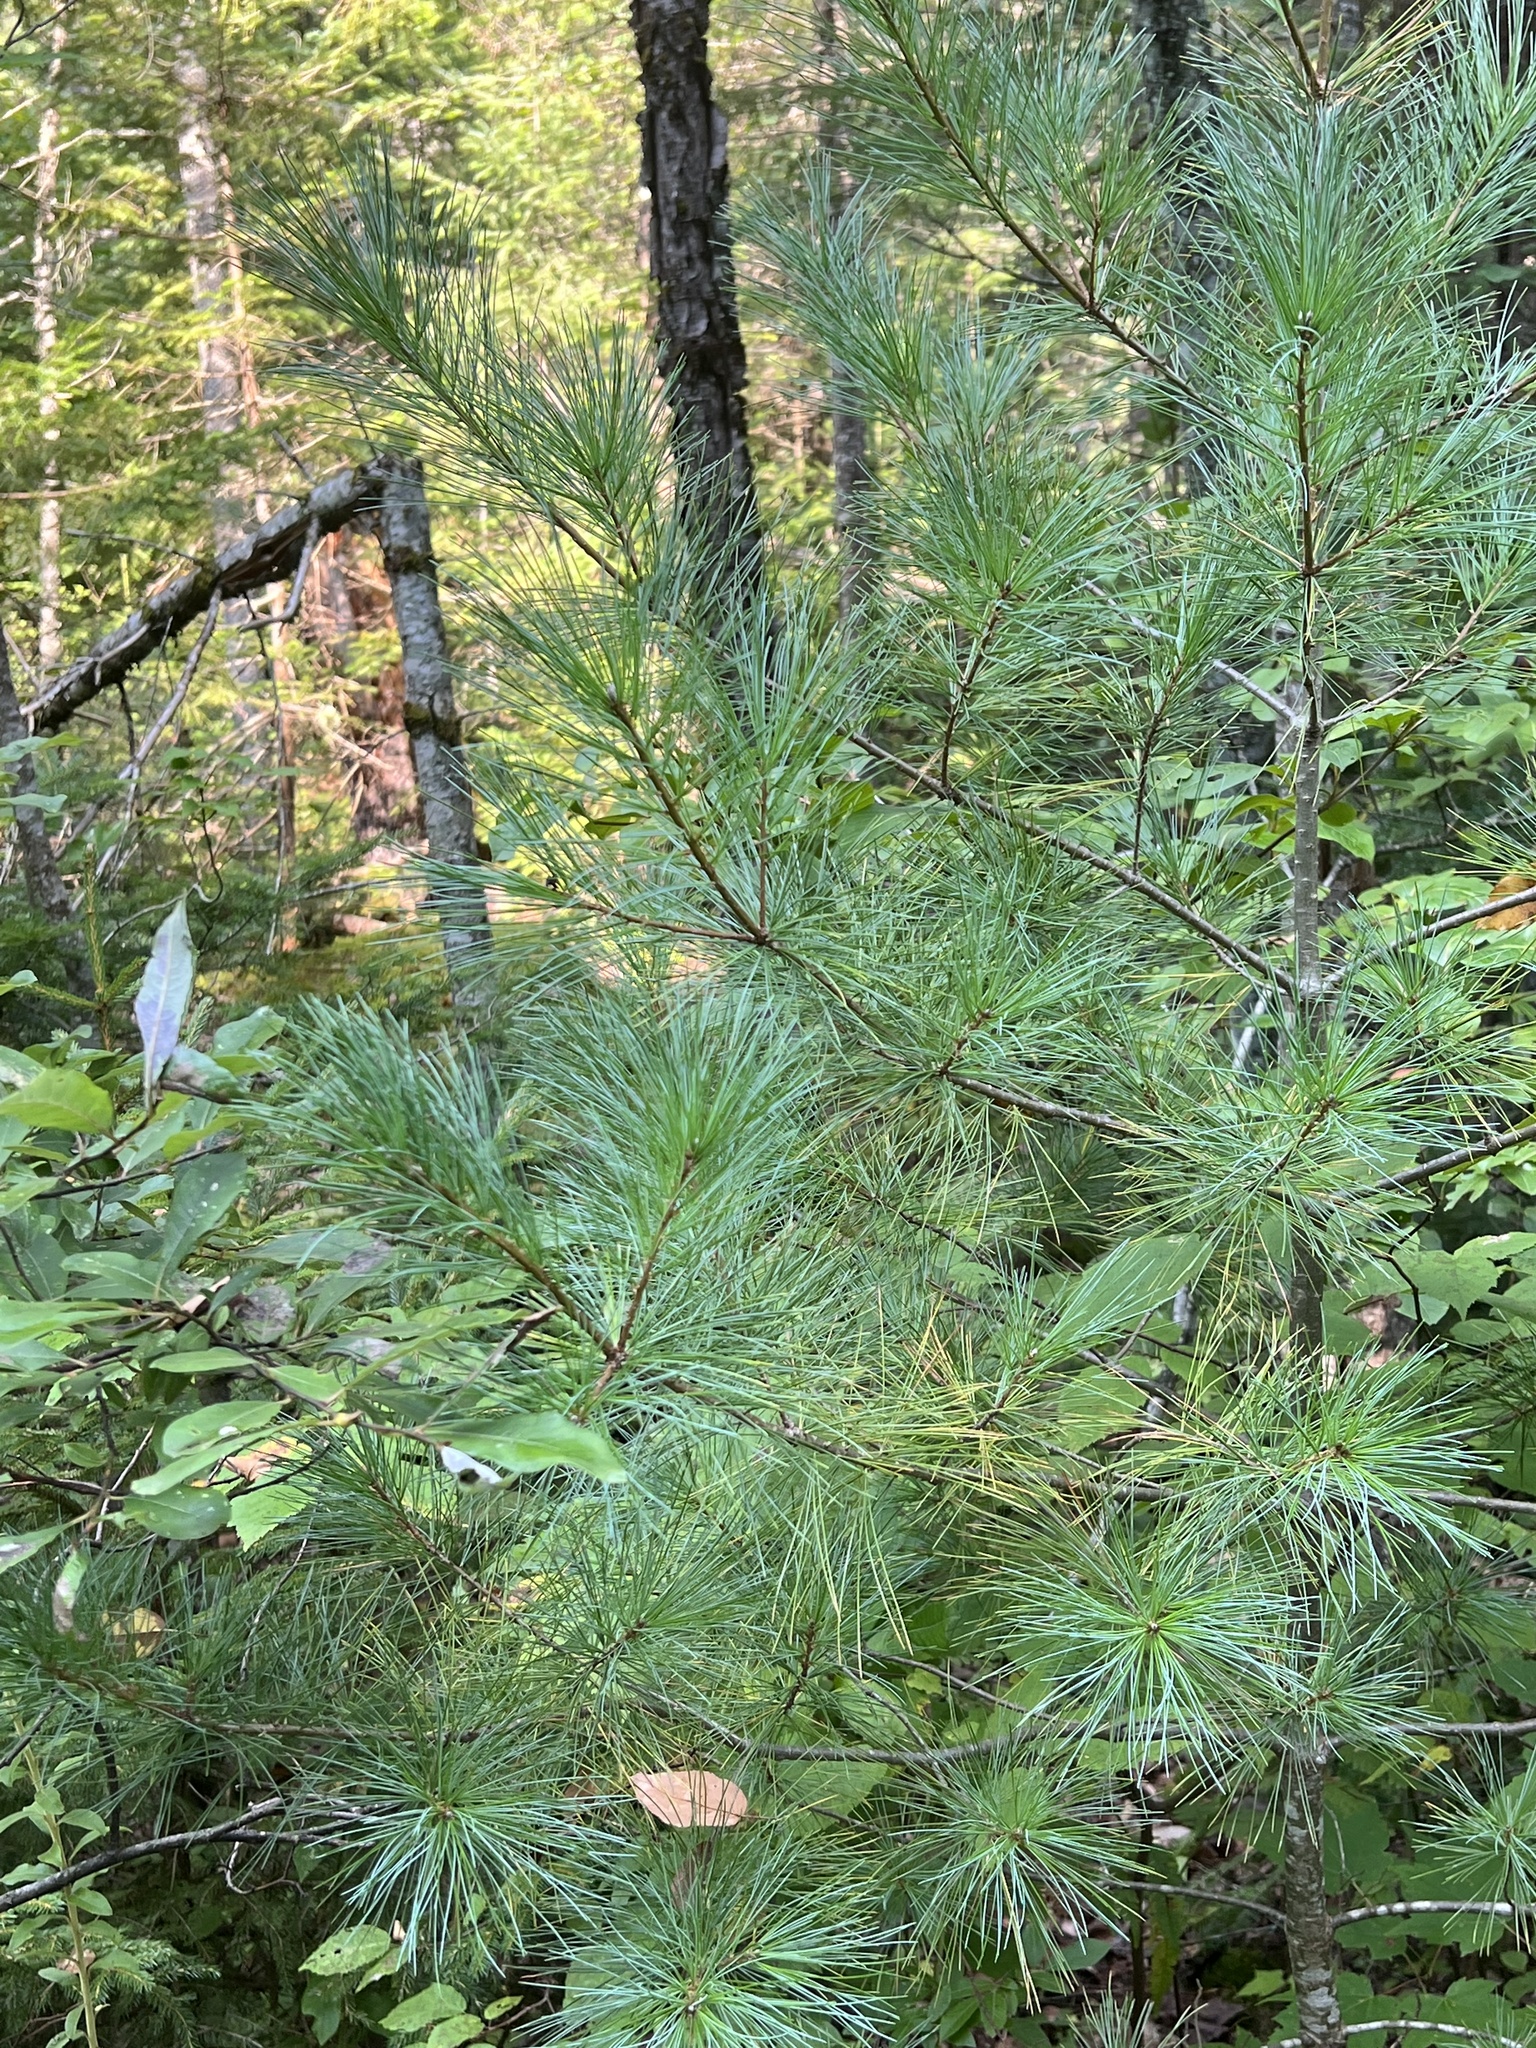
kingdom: Plantae
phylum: Tracheophyta
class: Pinopsida
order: Pinales
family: Pinaceae
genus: Pinus
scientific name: Pinus strobus
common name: Weymouth pine
